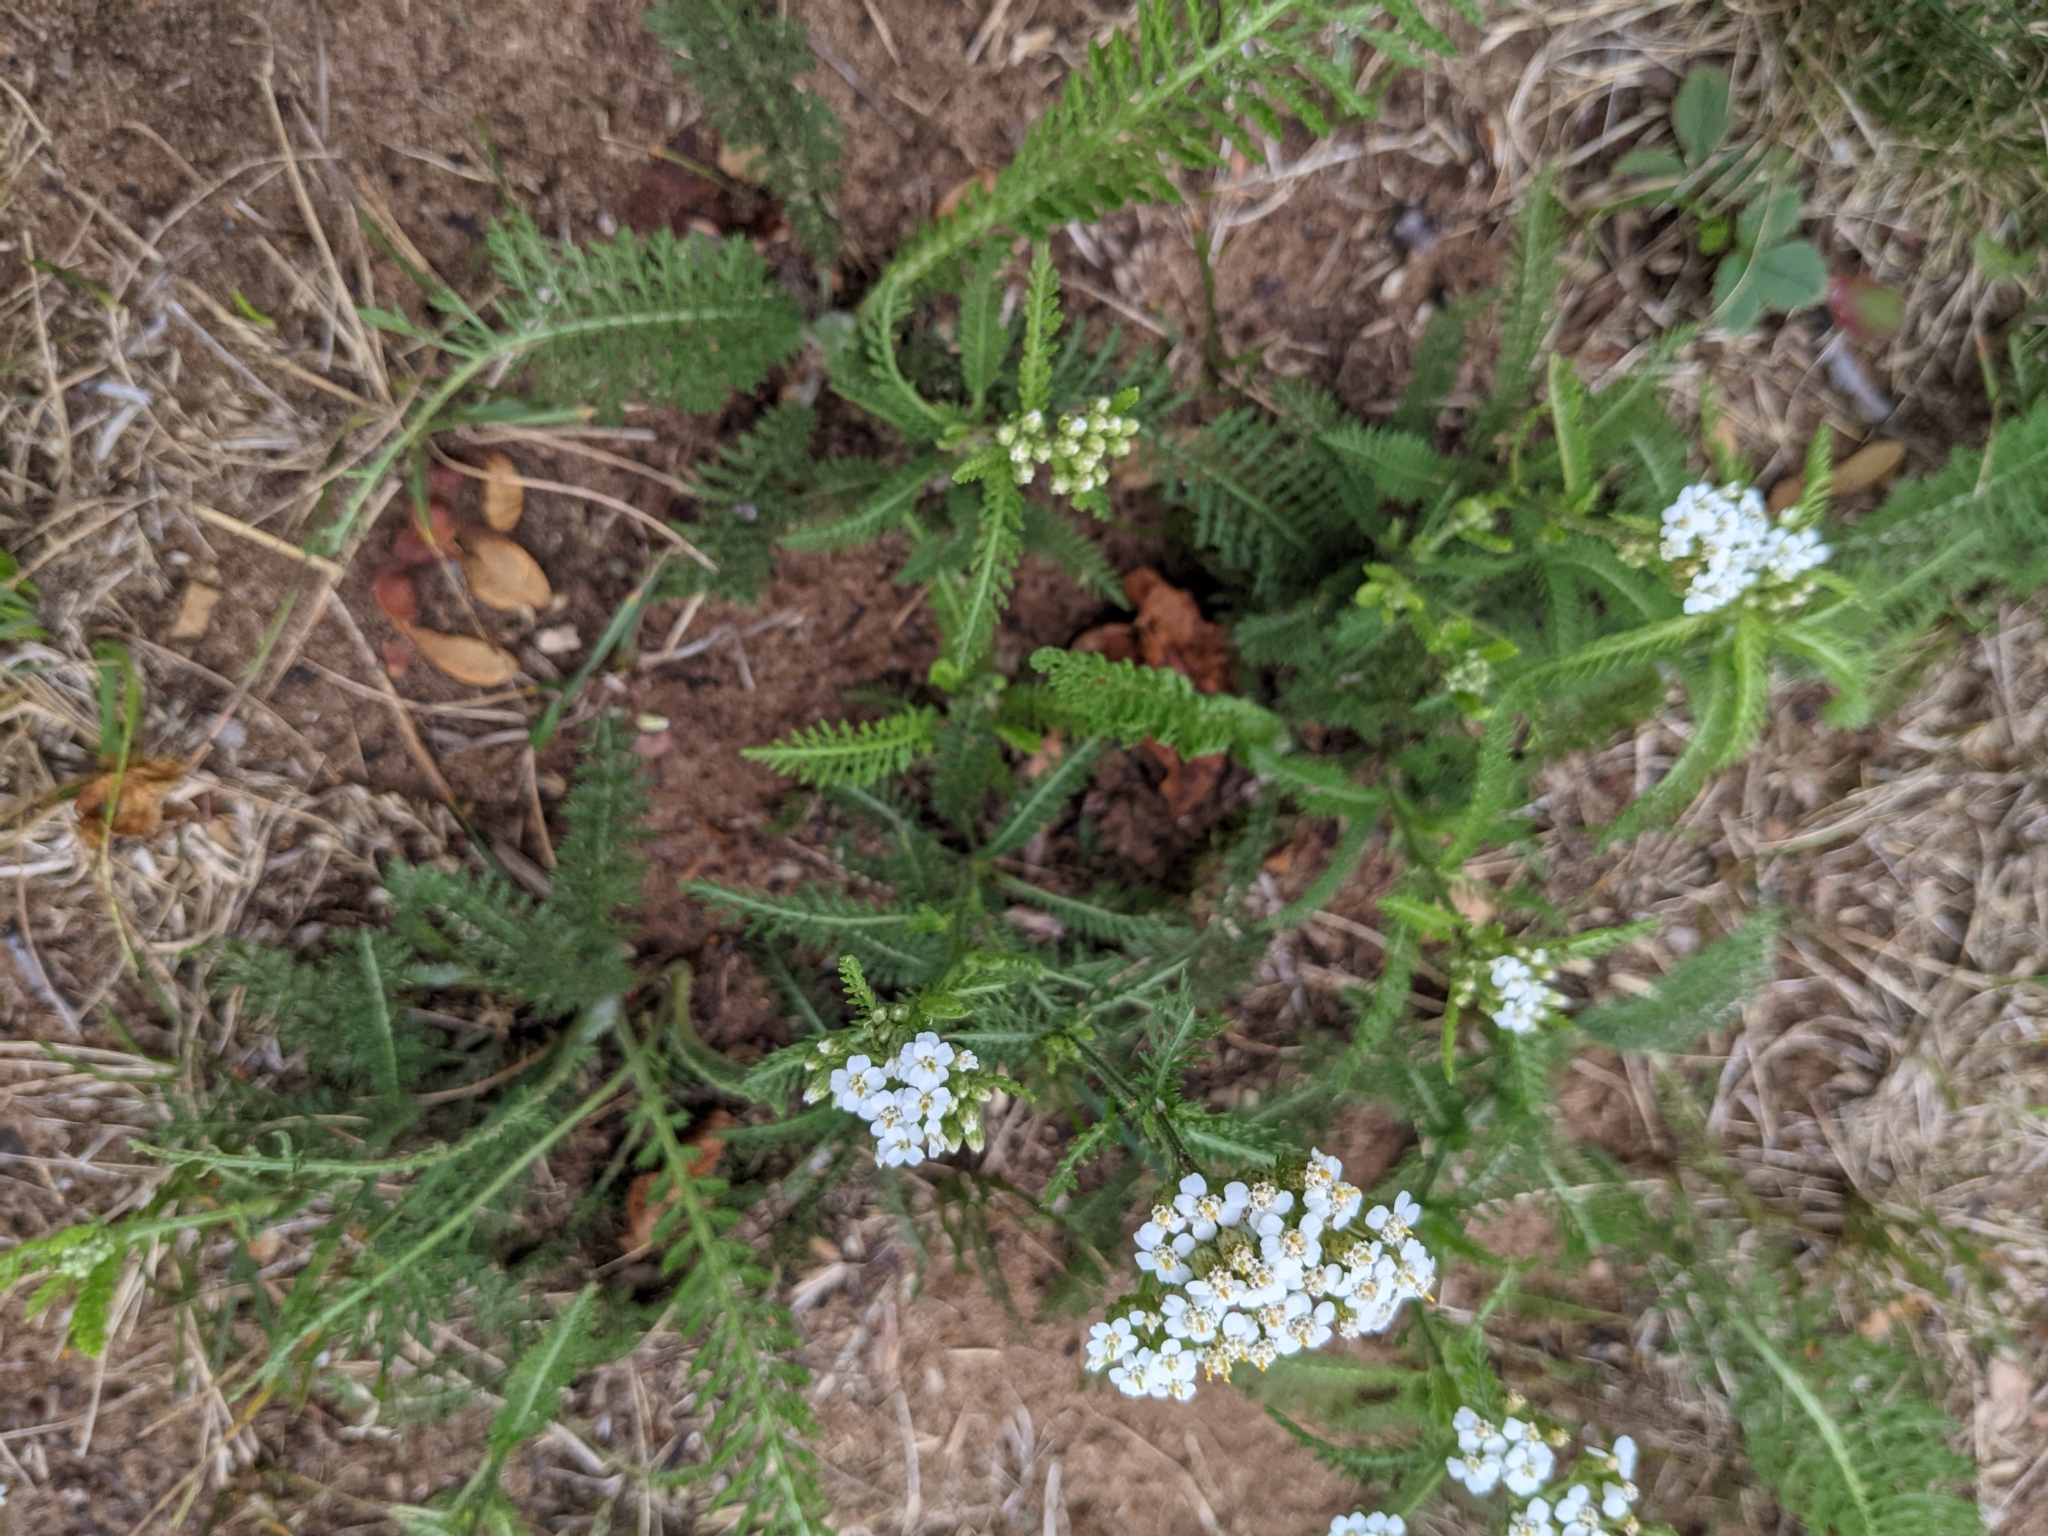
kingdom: Plantae
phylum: Tracheophyta
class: Magnoliopsida
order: Asterales
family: Asteraceae
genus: Achillea
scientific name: Achillea millefolium
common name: Yarrow
